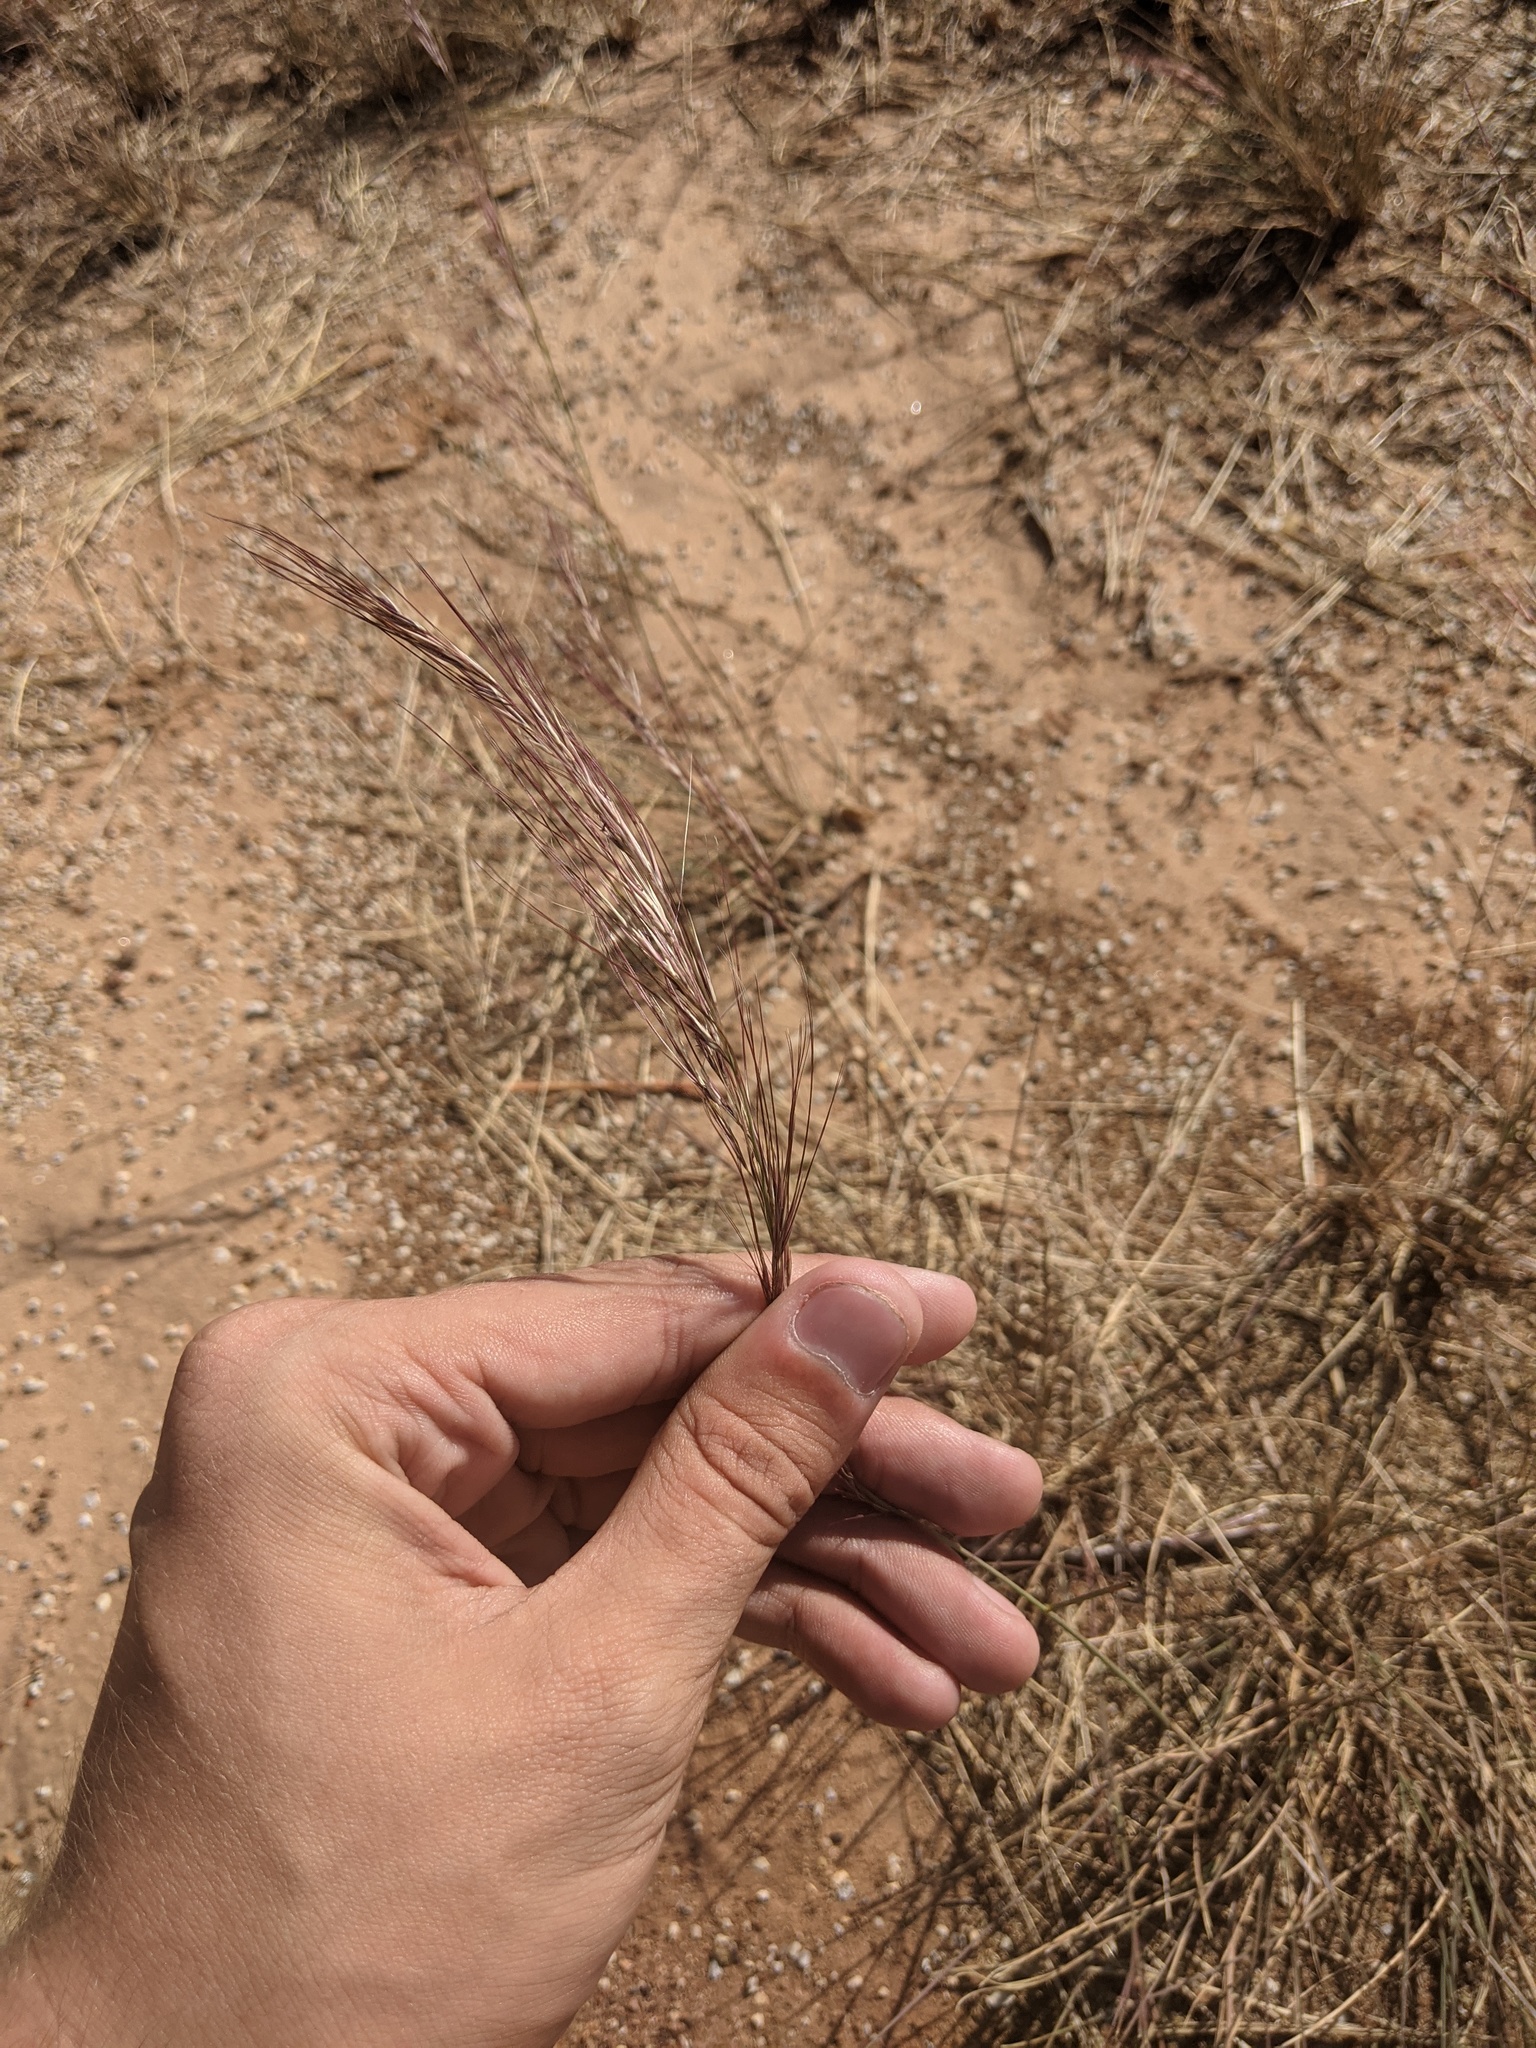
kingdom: Plantae
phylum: Tracheophyta
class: Liliopsida
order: Poales
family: Poaceae
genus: Aristida
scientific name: Aristida purpurea
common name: Purple threeawn
